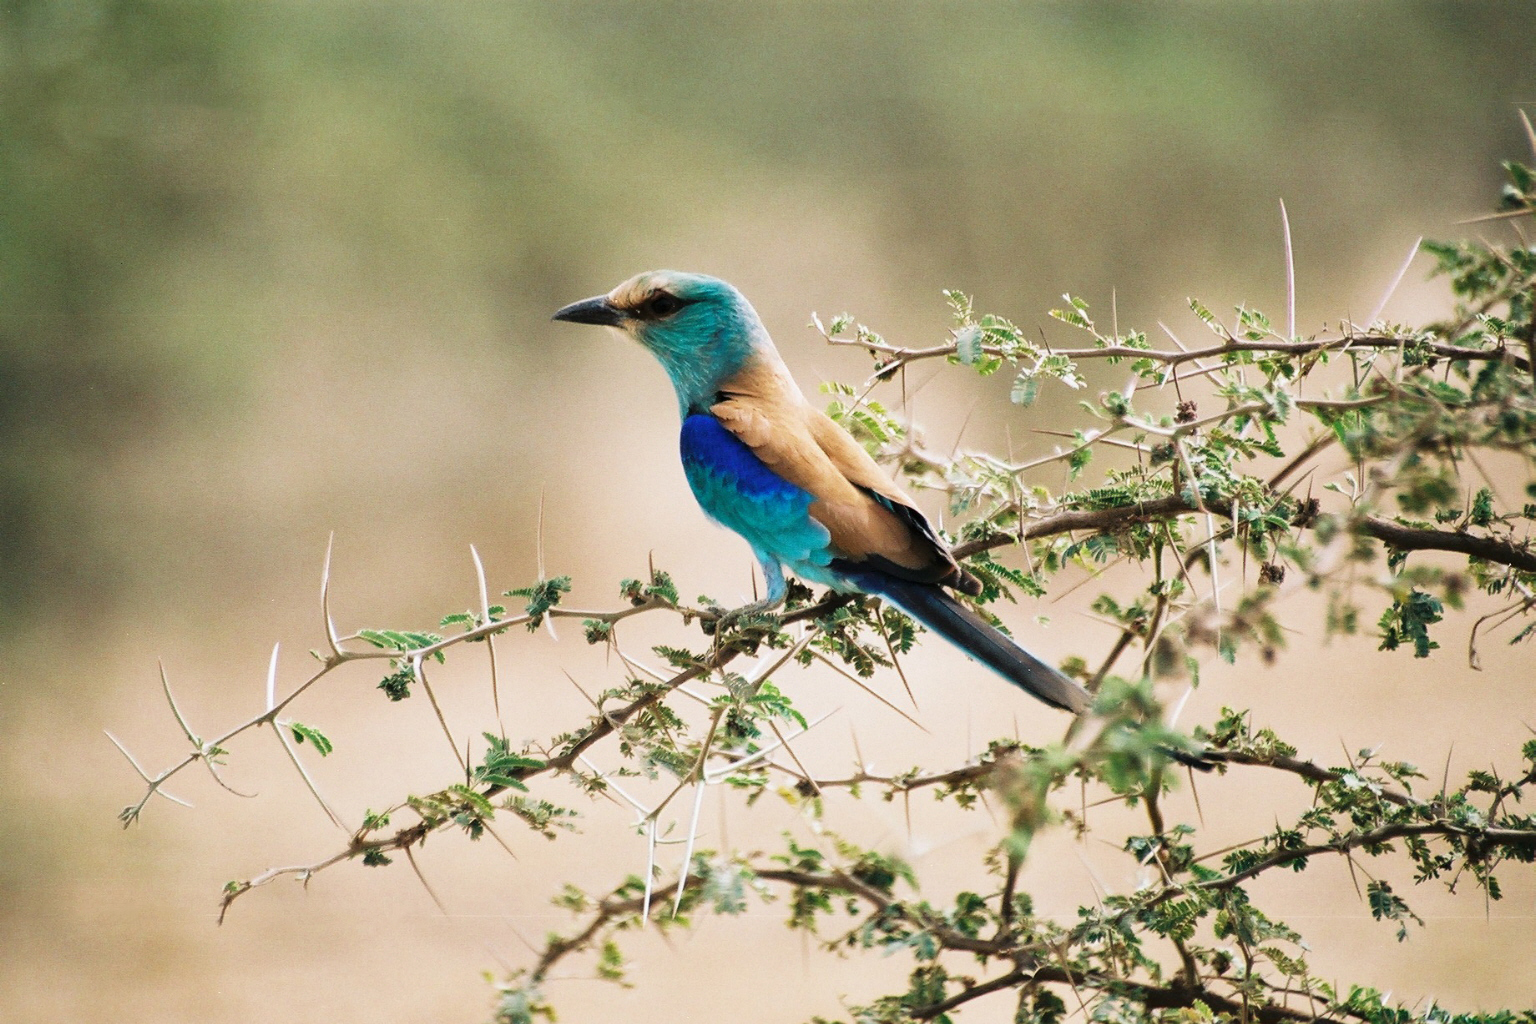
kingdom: Animalia
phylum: Chordata
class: Aves
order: Coraciiformes
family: Coraciidae
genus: Coracias
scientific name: Coracias abyssinicus
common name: Abyssinian roller
